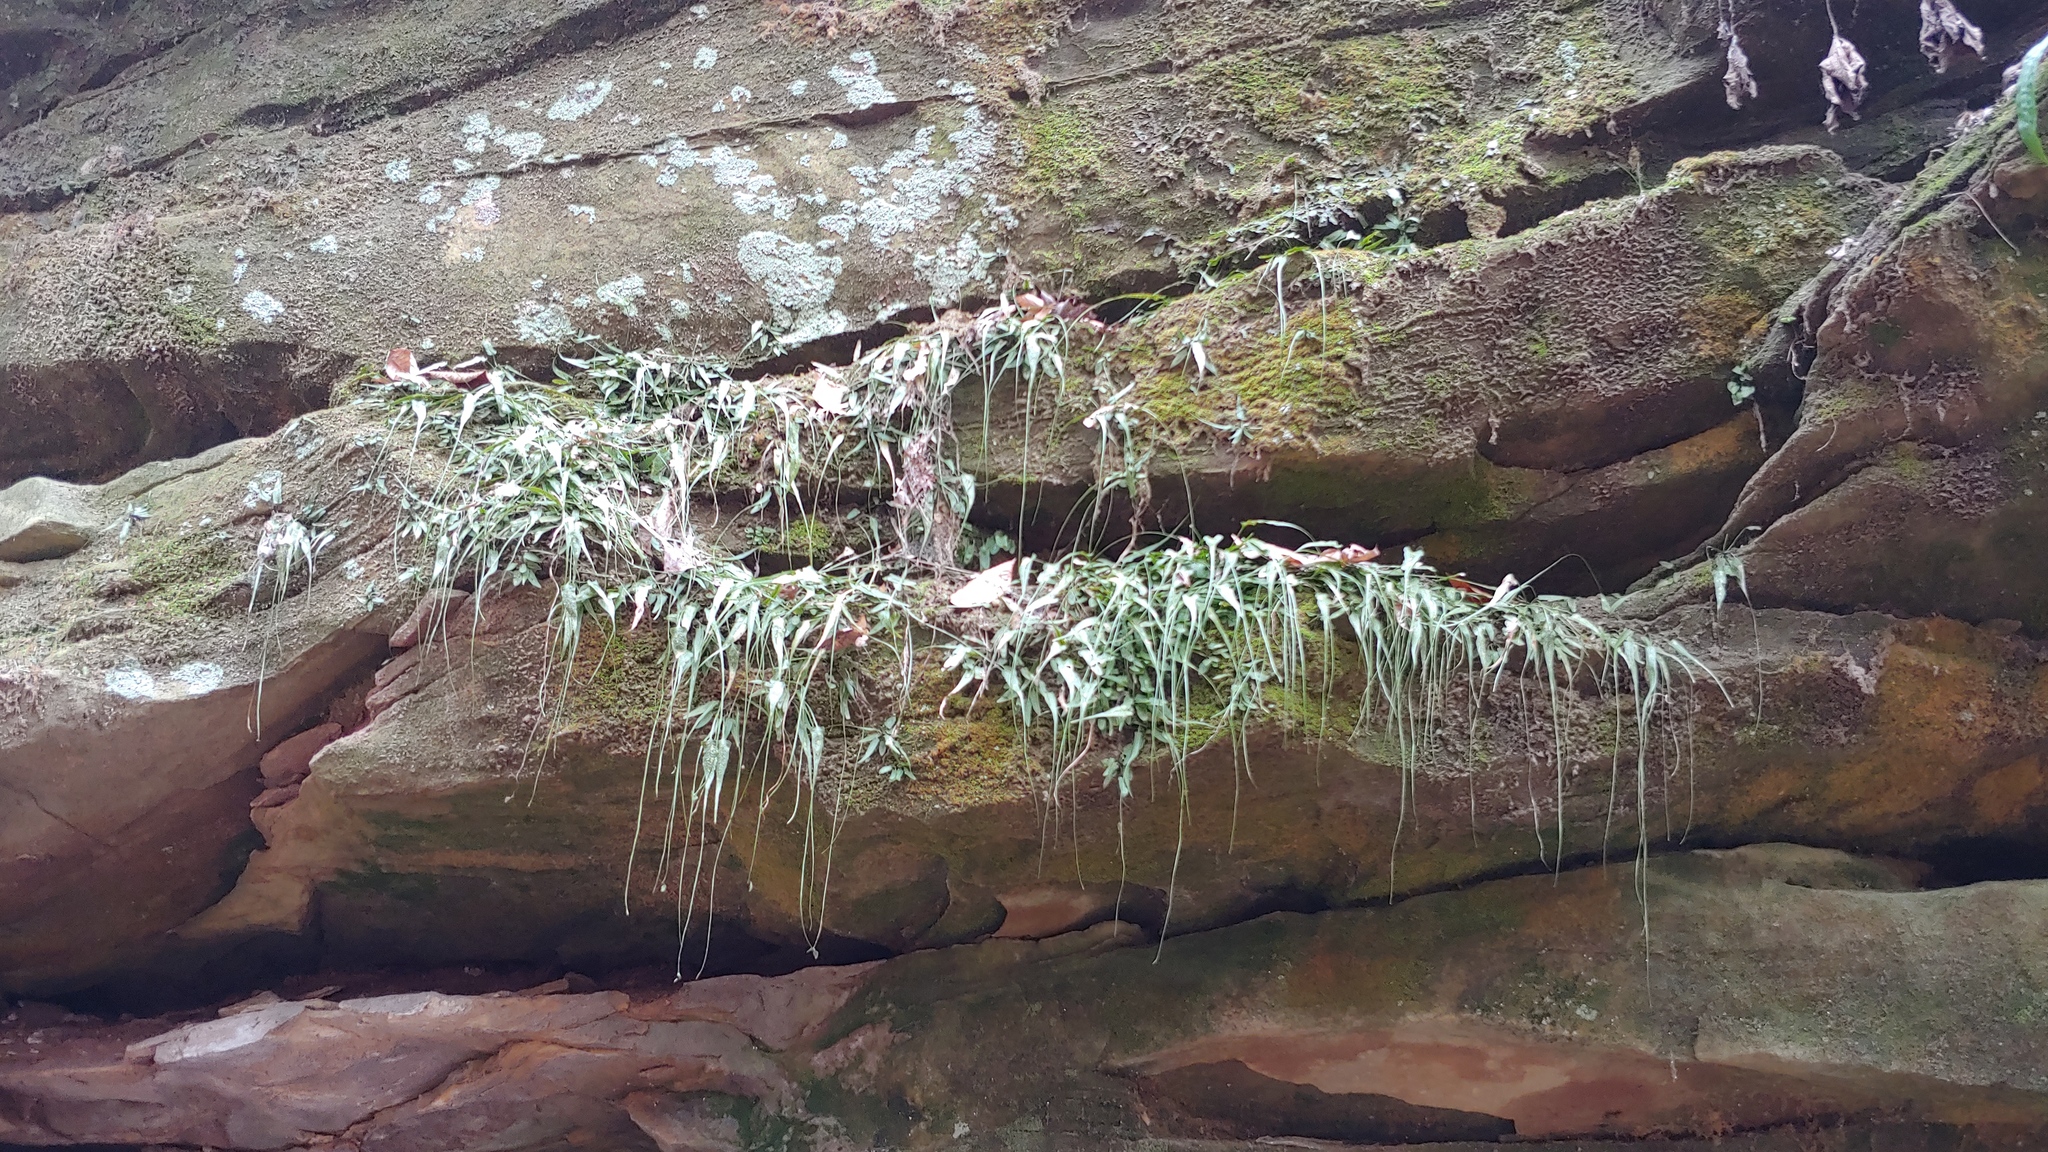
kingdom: Plantae
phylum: Tracheophyta
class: Polypodiopsida
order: Polypodiales
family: Aspleniaceae
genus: Asplenium
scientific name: Asplenium rhizophyllum
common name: Walking fern
